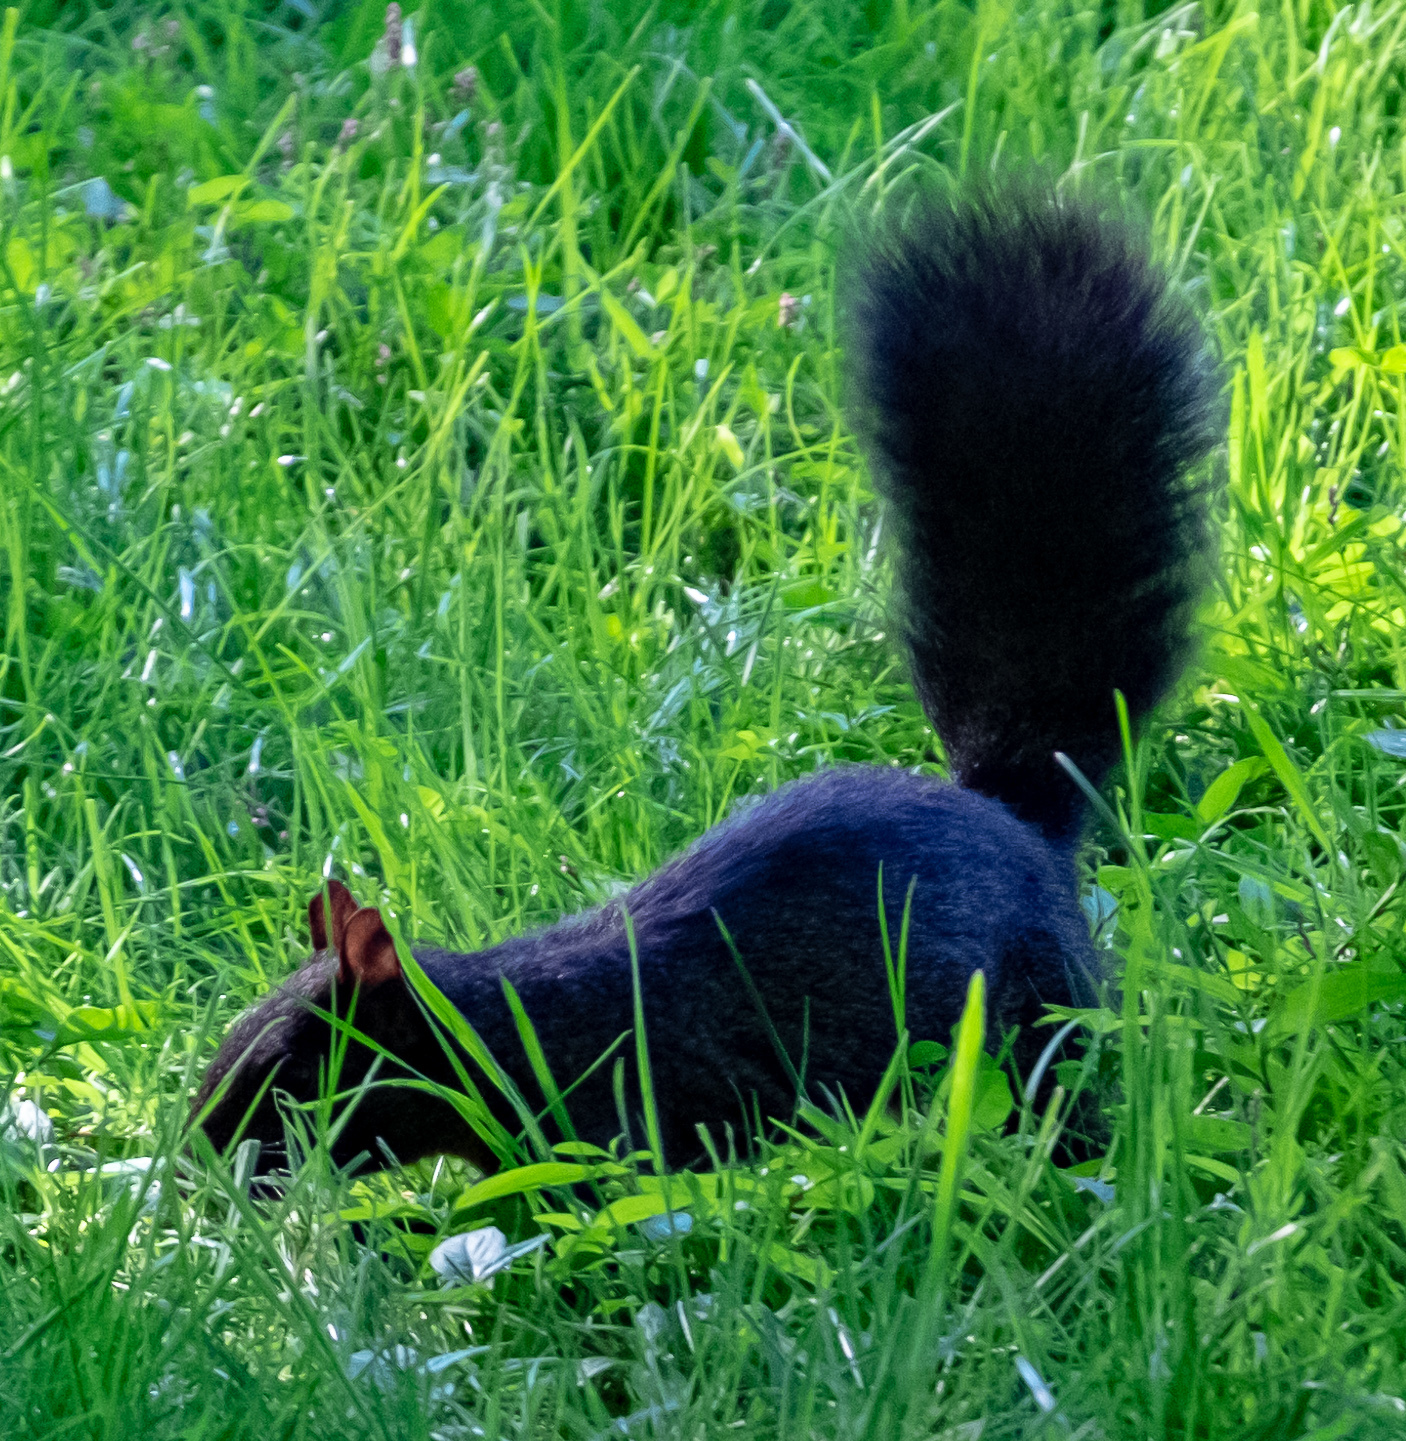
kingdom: Animalia
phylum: Chordata
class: Mammalia
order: Rodentia
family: Sciuridae
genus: Sciurus
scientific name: Sciurus carolinensis
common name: Eastern gray squirrel
